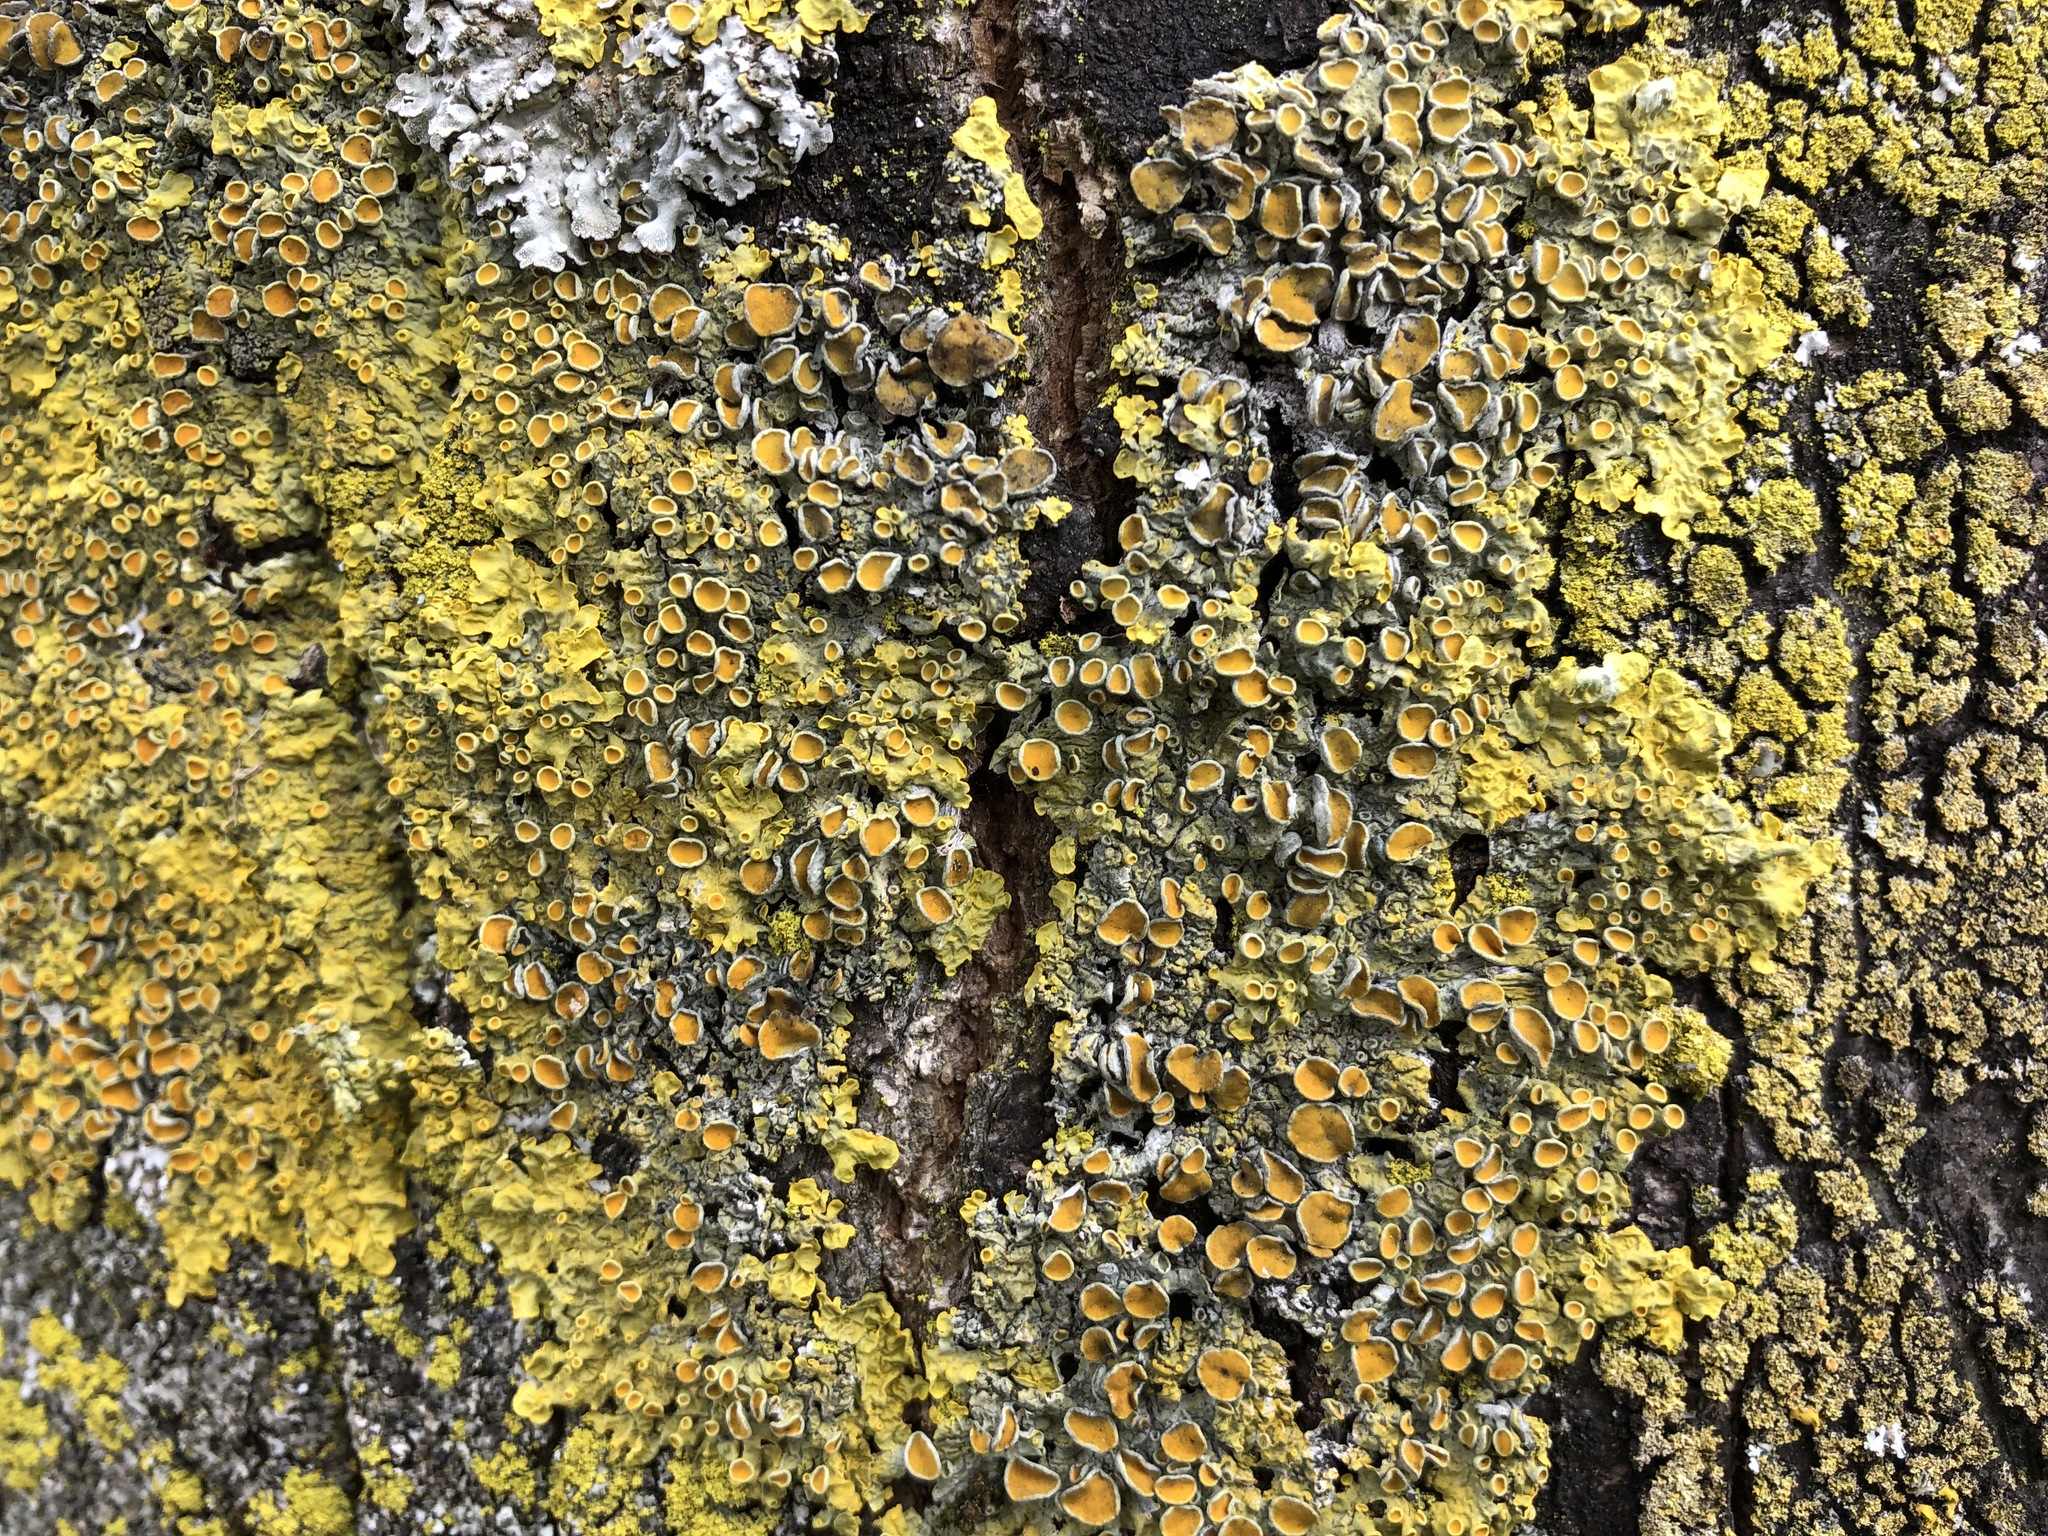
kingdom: Fungi
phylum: Ascomycota
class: Lecanoromycetes
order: Teloschistales
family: Teloschistaceae
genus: Xanthoria
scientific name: Xanthoria parietina
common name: Common orange lichen
